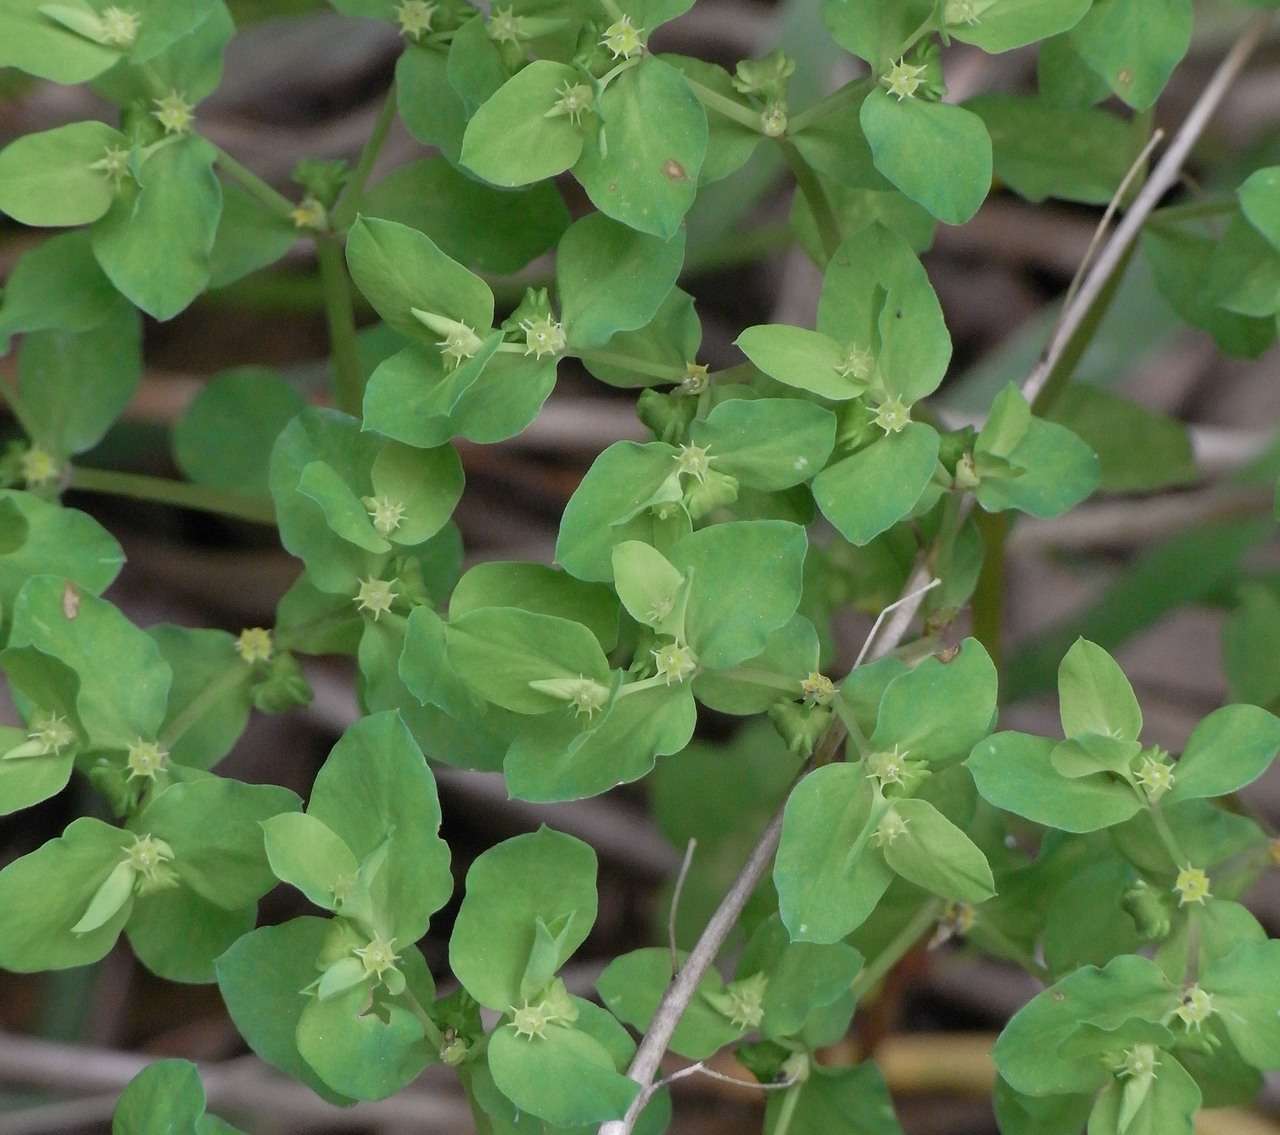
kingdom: Plantae
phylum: Tracheophyta
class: Magnoliopsida
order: Malpighiales
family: Euphorbiaceae
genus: Euphorbia
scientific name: Euphorbia peplus
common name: Petty spurge
